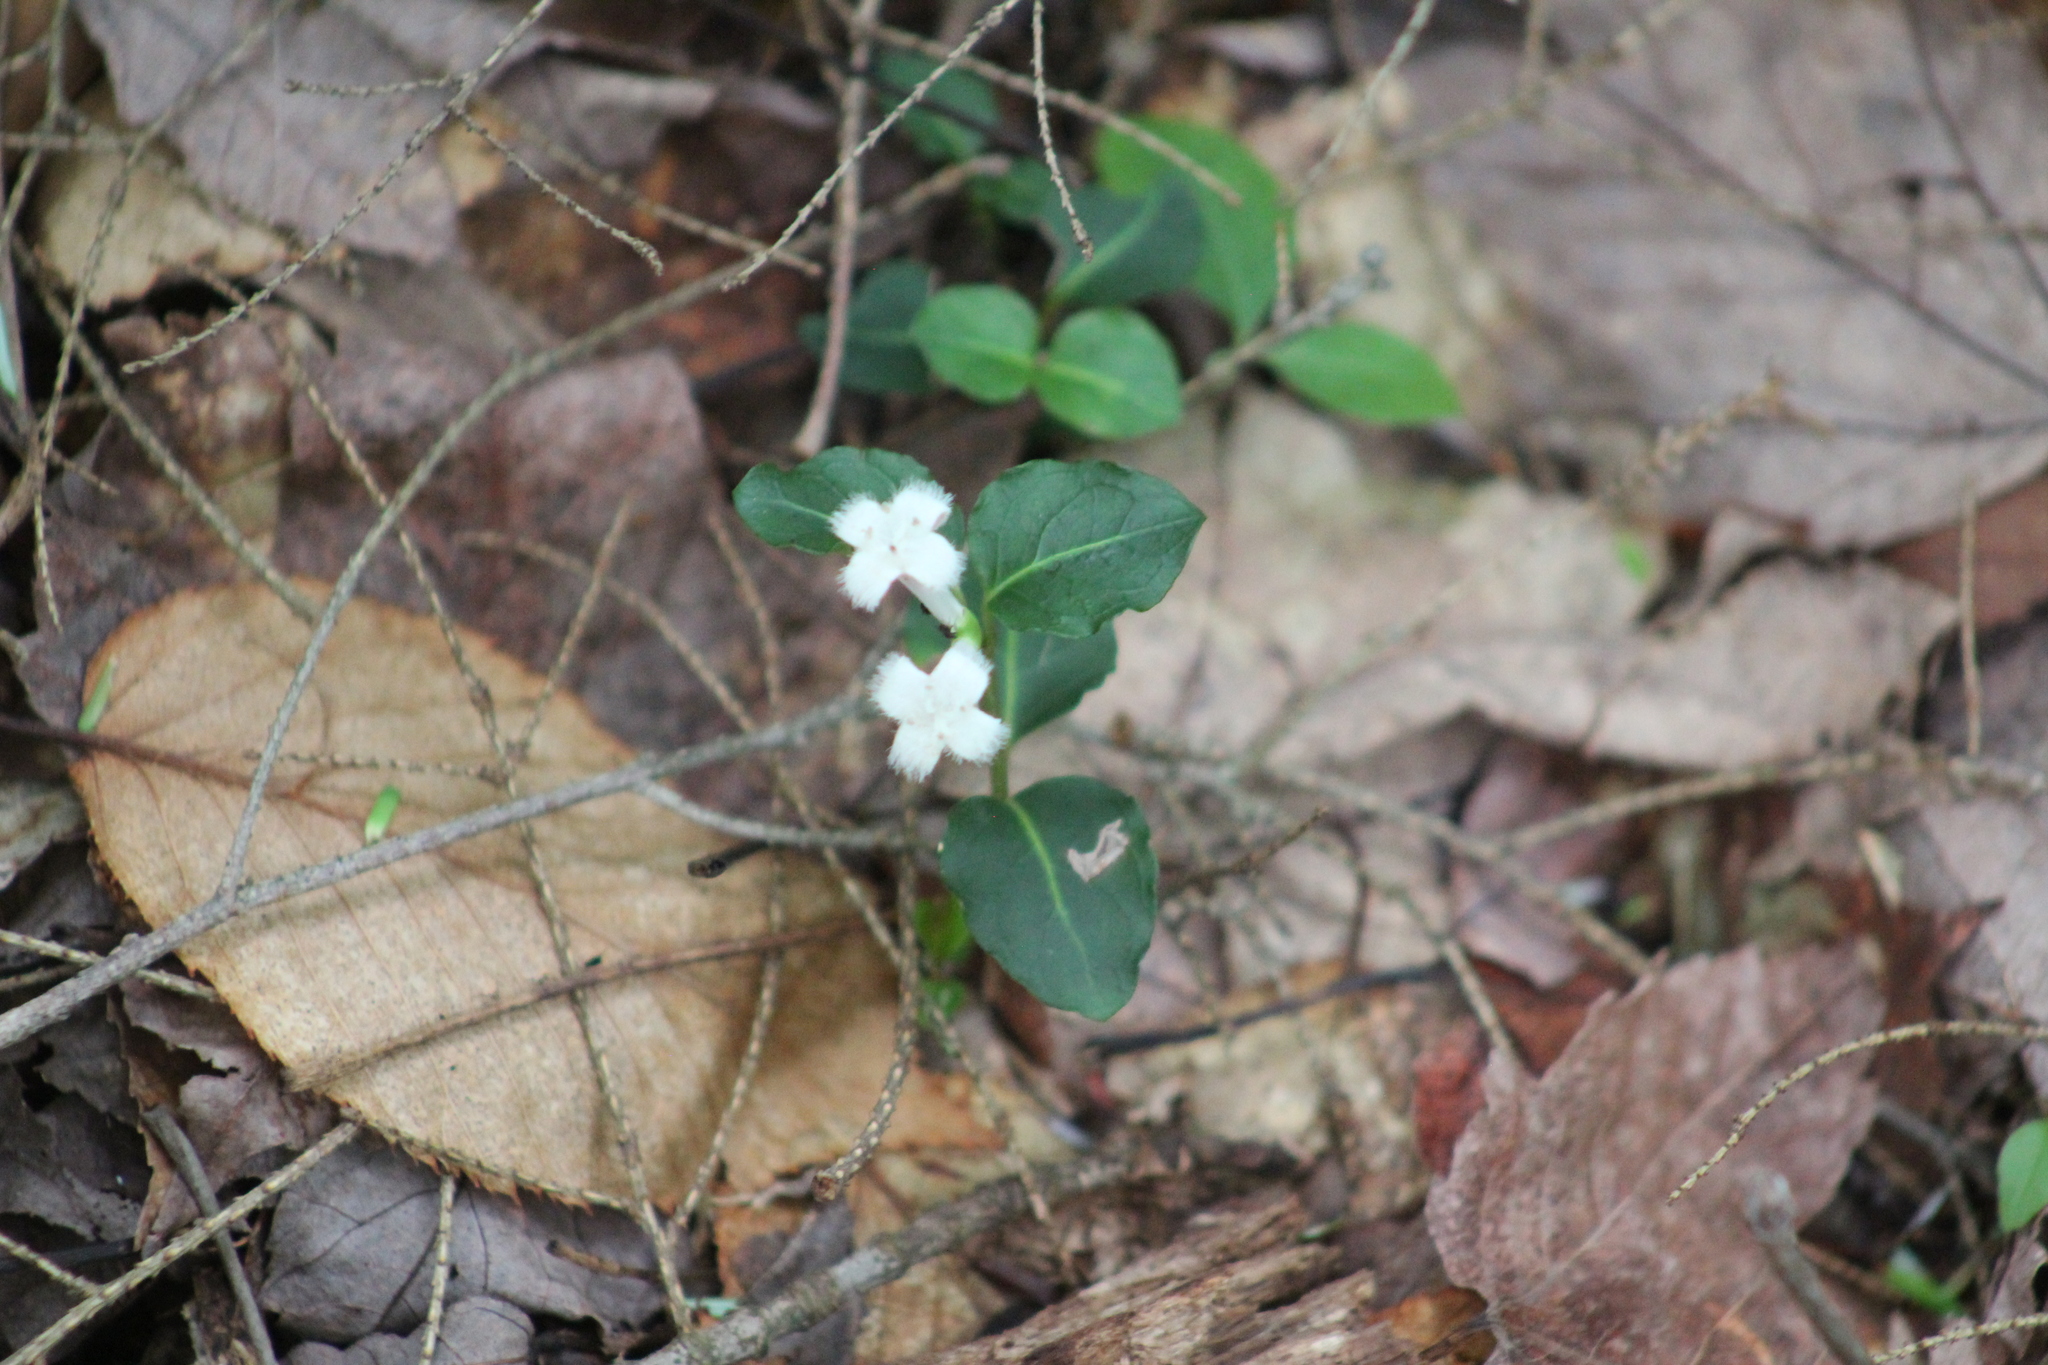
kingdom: Plantae
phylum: Tracheophyta
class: Magnoliopsida
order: Gentianales
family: Rubiaceae
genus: Mitchella
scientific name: Mitchella repens
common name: Partridge-berry
